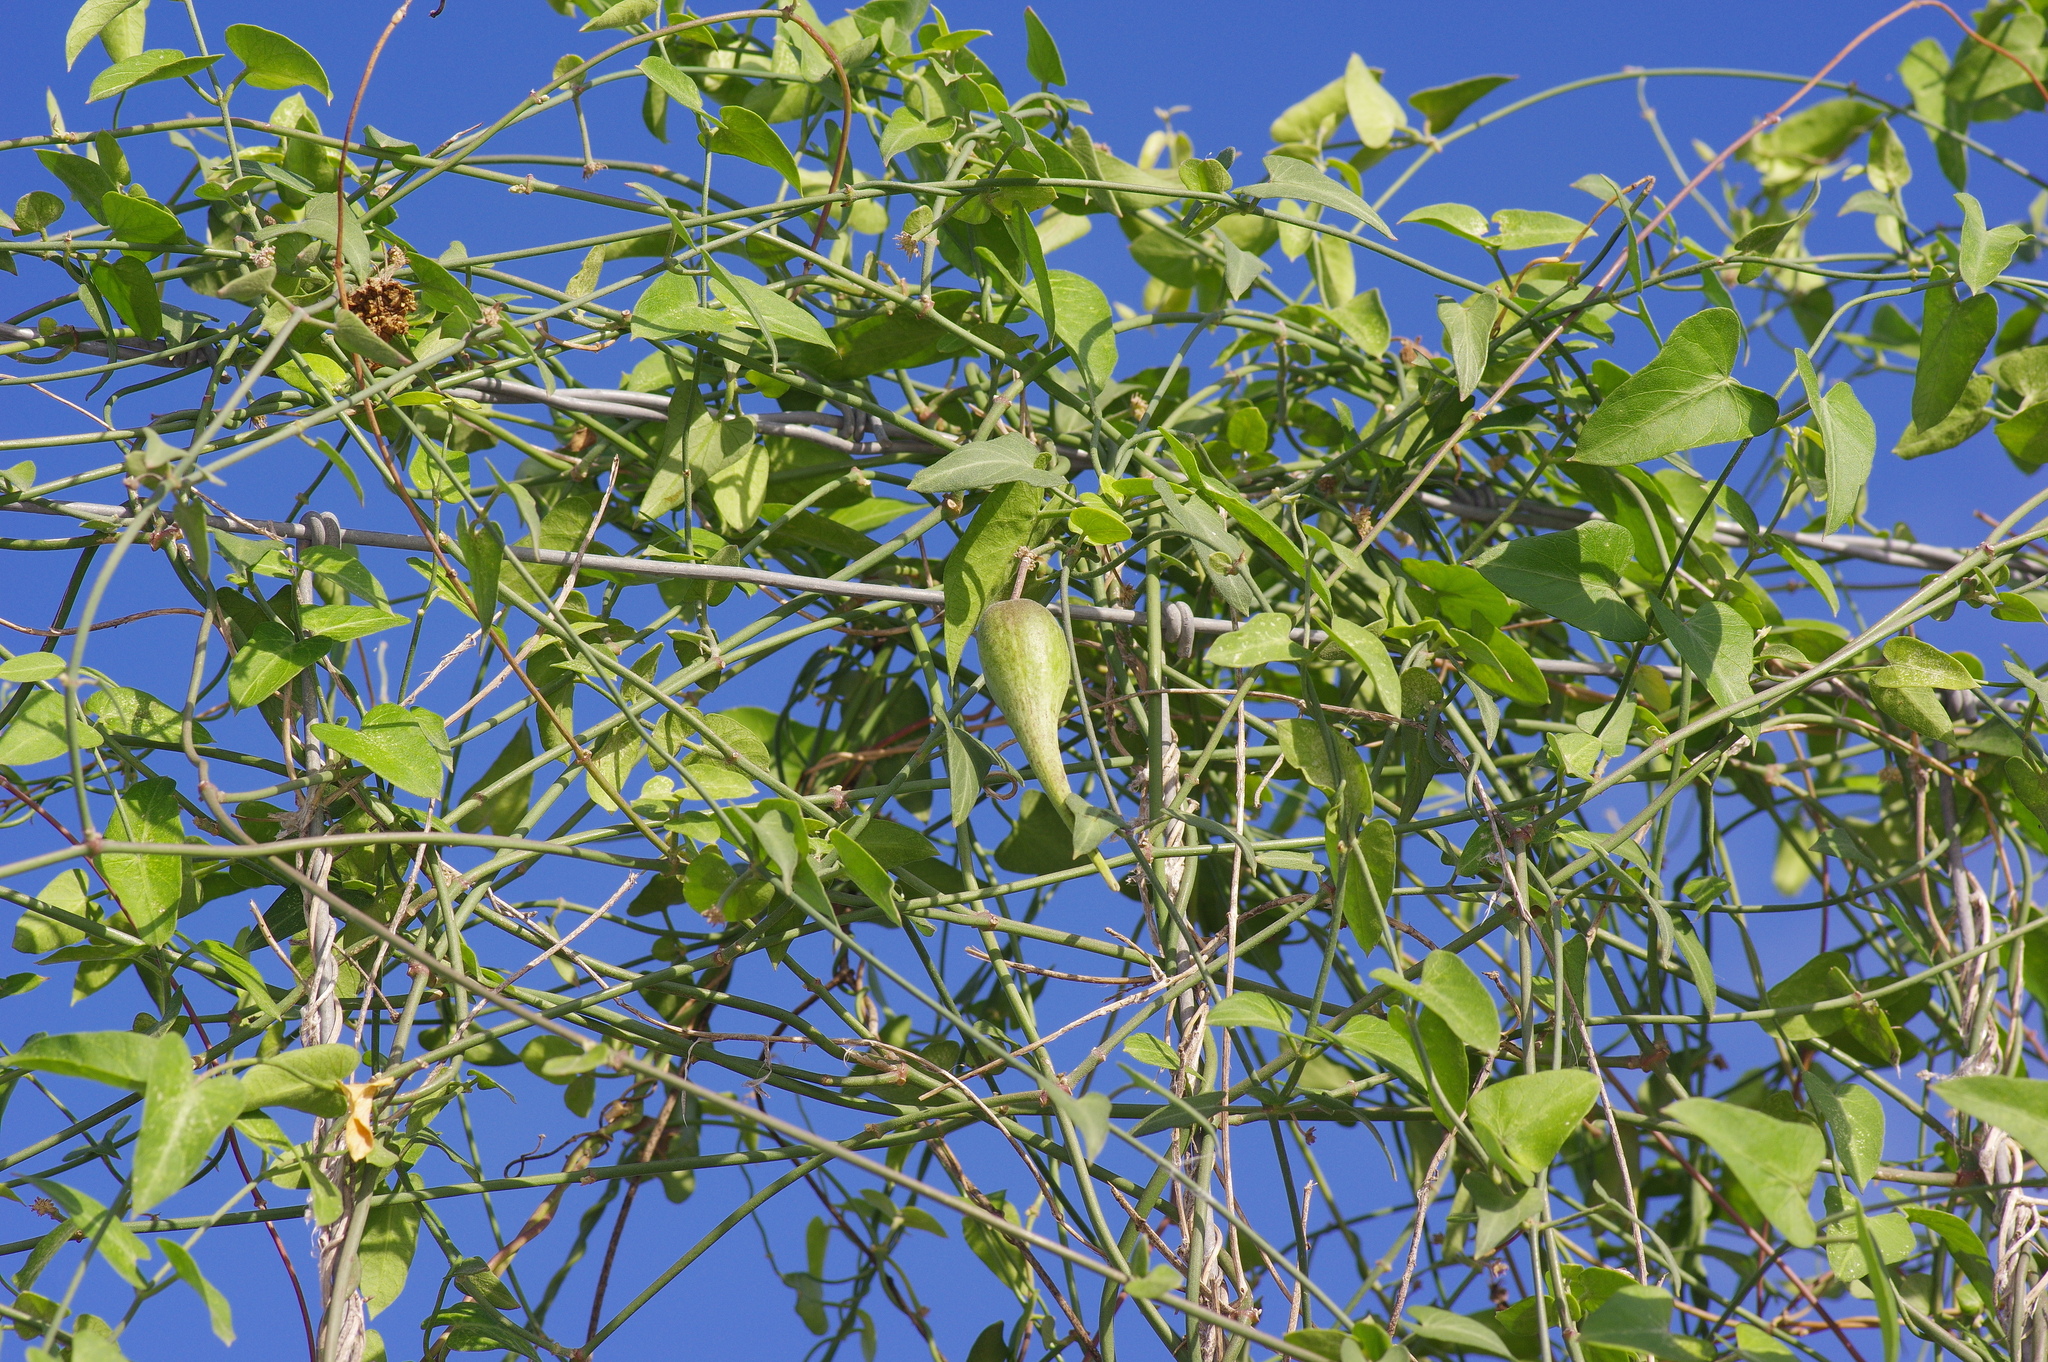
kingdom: Plantae
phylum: Tracheophyta
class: Magnoliopsida
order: Gentianales
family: Apocynaceae
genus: Funastrum
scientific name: Funastrum cynanchoides
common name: Climbing-milkweed
